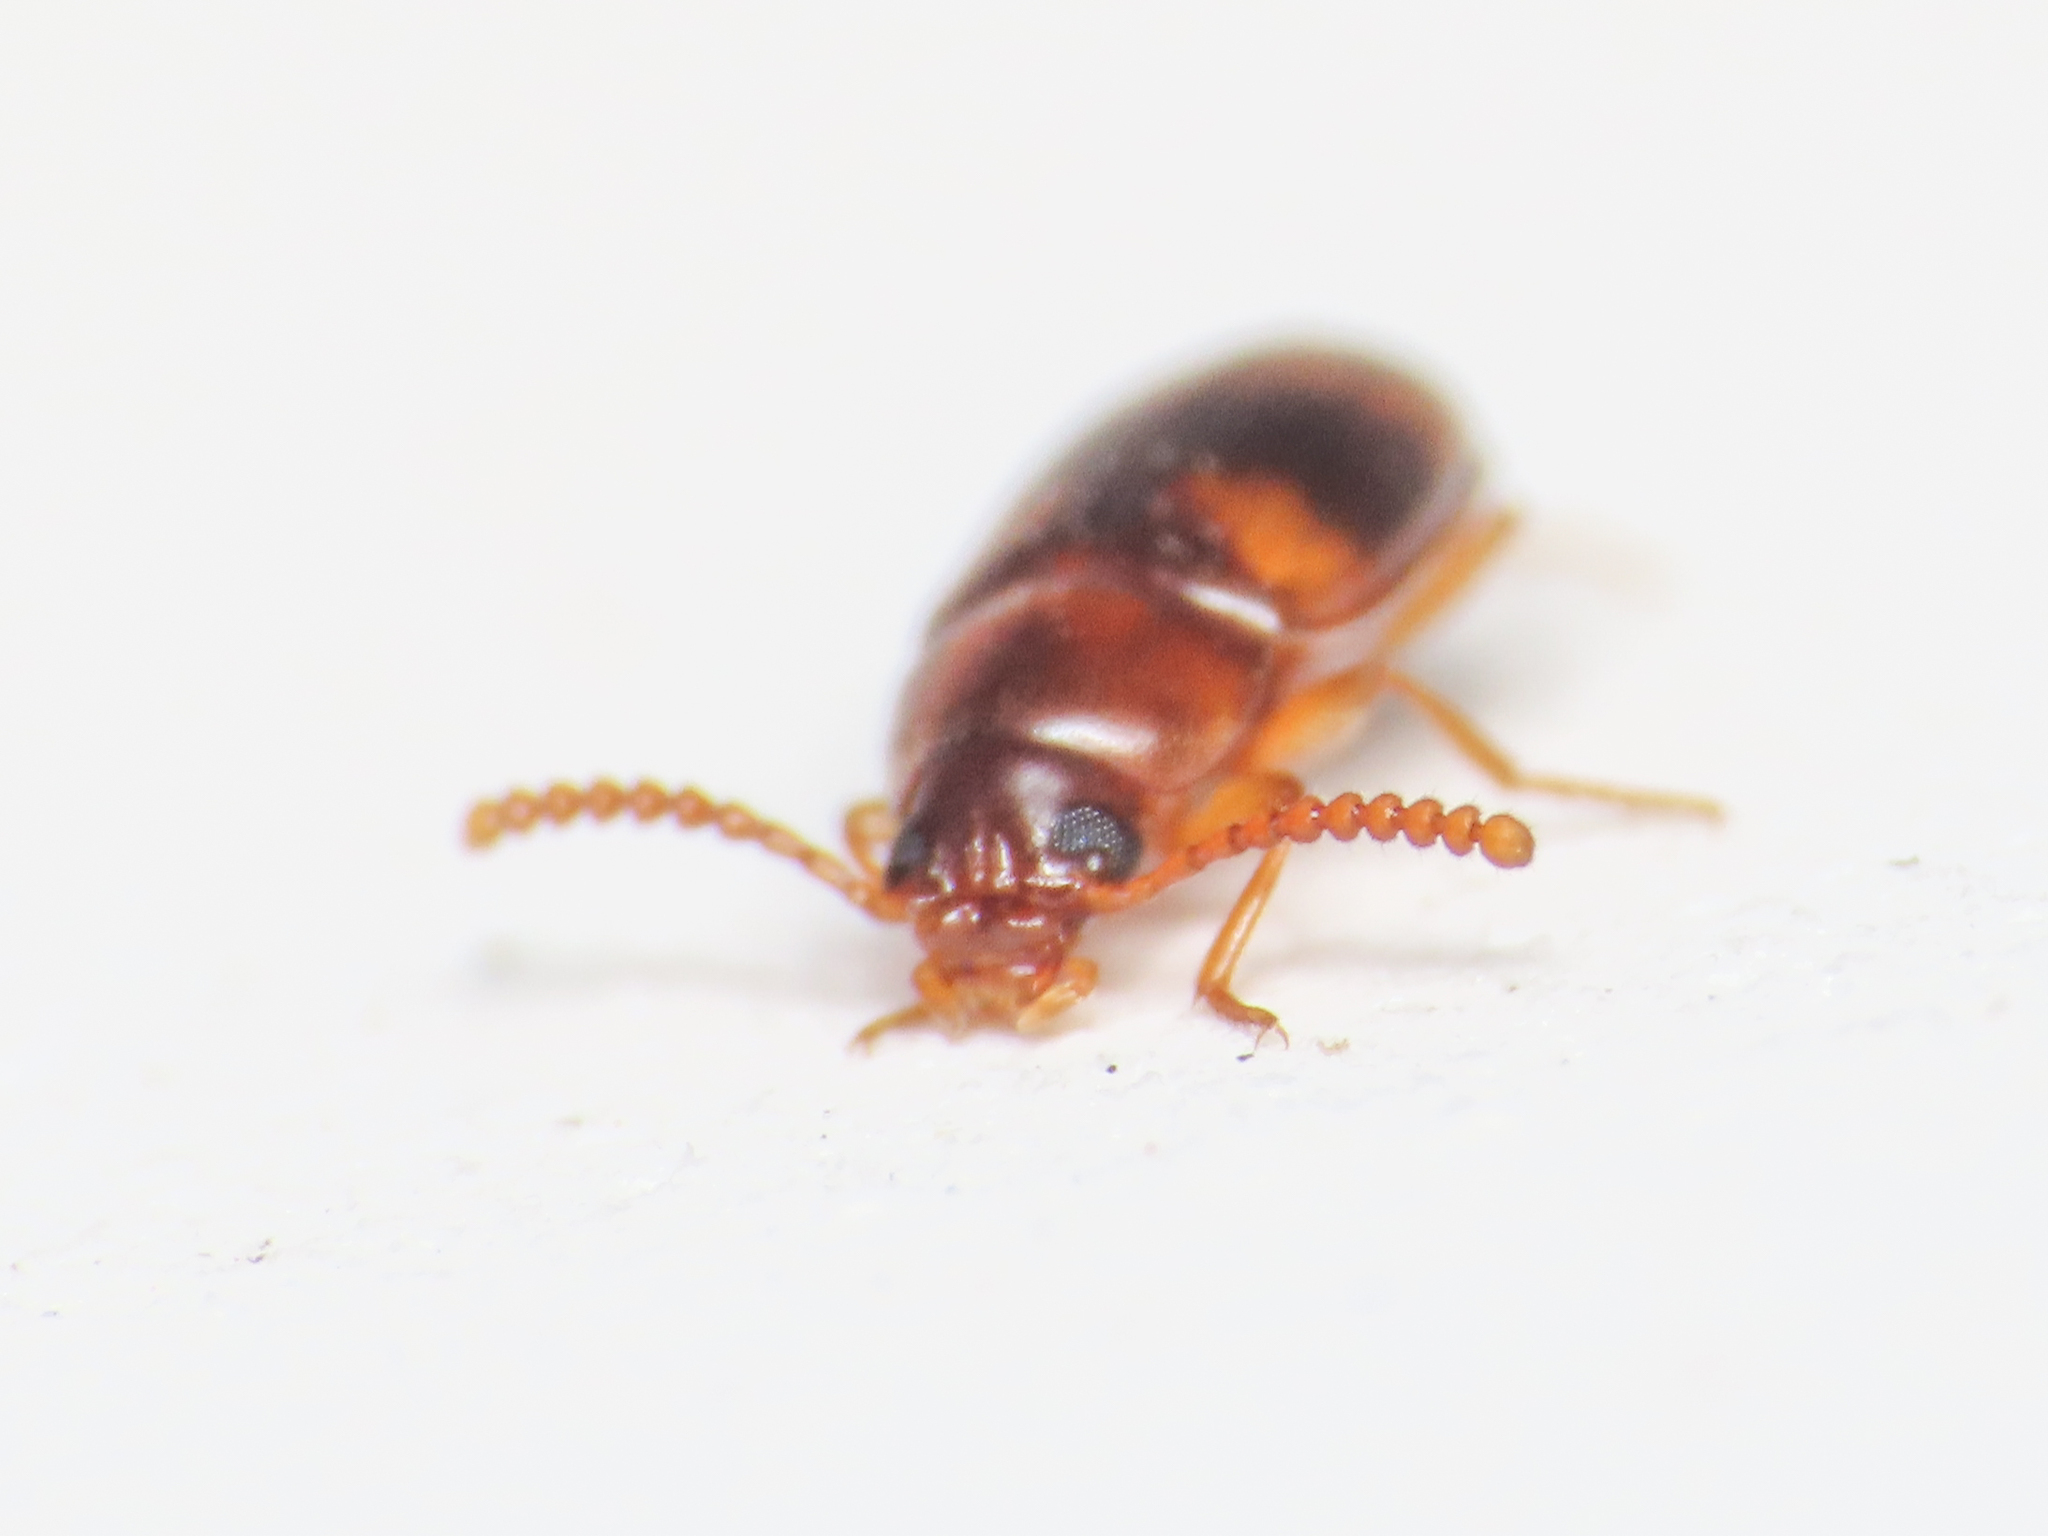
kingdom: Animalia
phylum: Arthropoda
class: Insecta
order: Coleoptera
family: Tenebrionidae
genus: Alphitophagus
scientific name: Alphitophagus bifasciatus
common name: Two-banded fungus beetle
